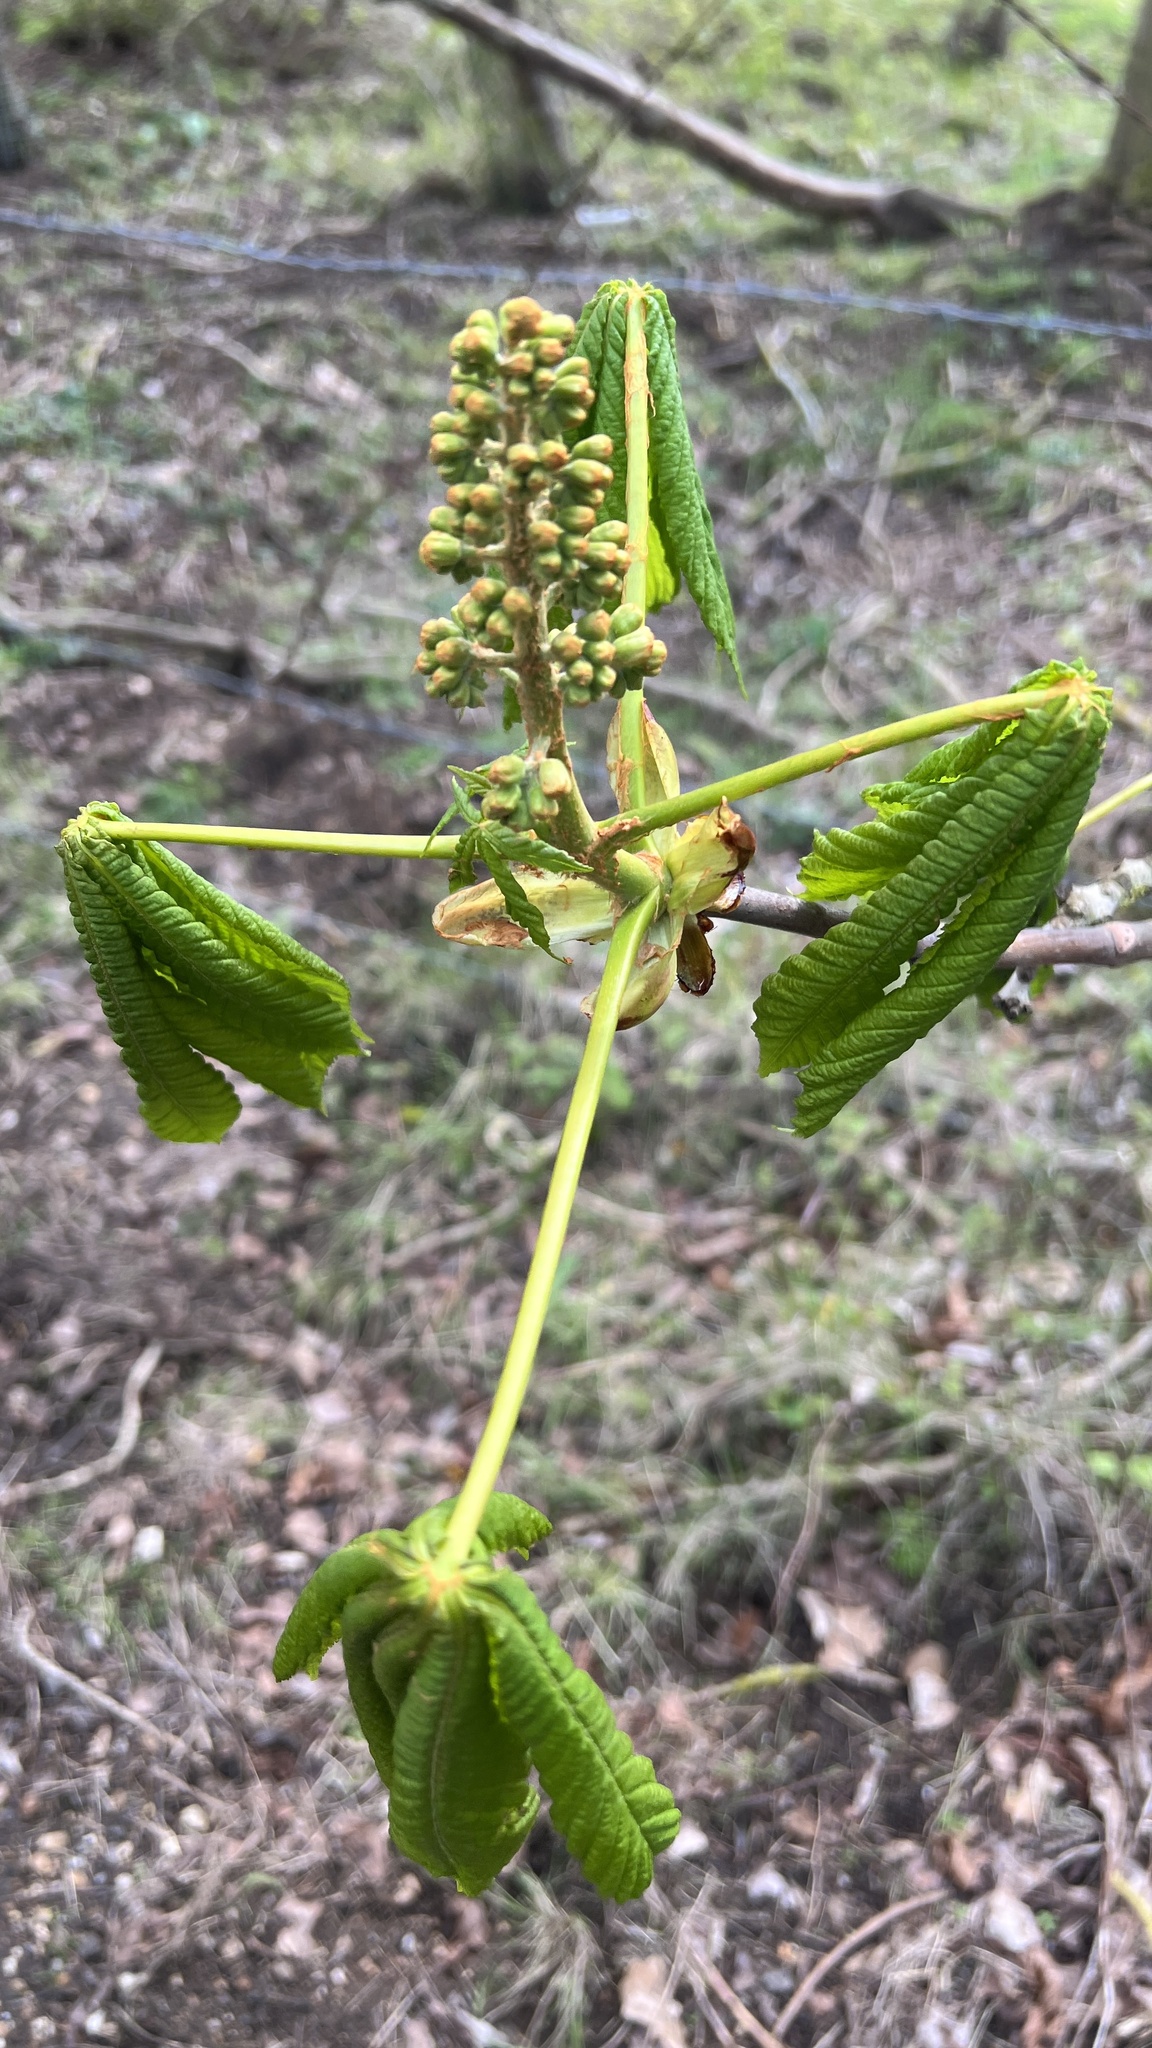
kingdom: Plantae
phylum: Tracheophyta
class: Magnoliopsida
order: Sapindales
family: Sapindaceae
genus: Aesculus
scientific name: Aesculus hippocastanum
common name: Horse-chestnut
